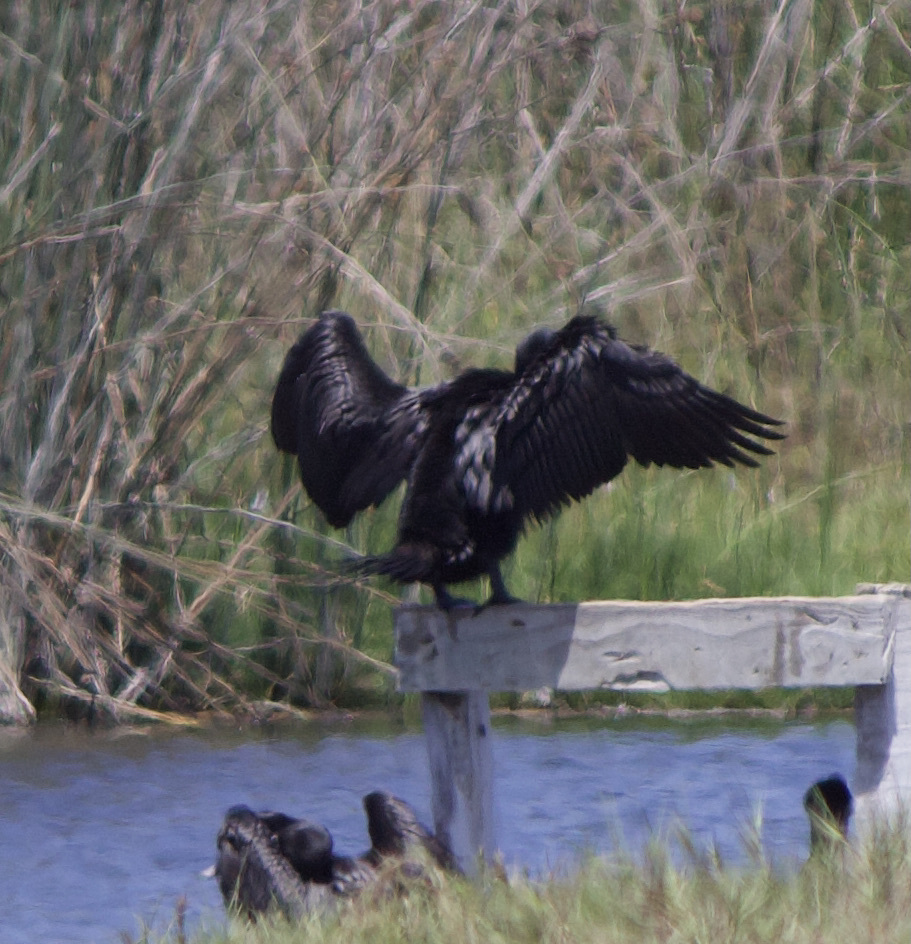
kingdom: Animalia
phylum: Chordata
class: Aves
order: Suliformes
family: Phalacrocoracidae
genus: Phalacrocorax
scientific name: Phalacrocorax brasilianus
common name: Neotropic cormorant
